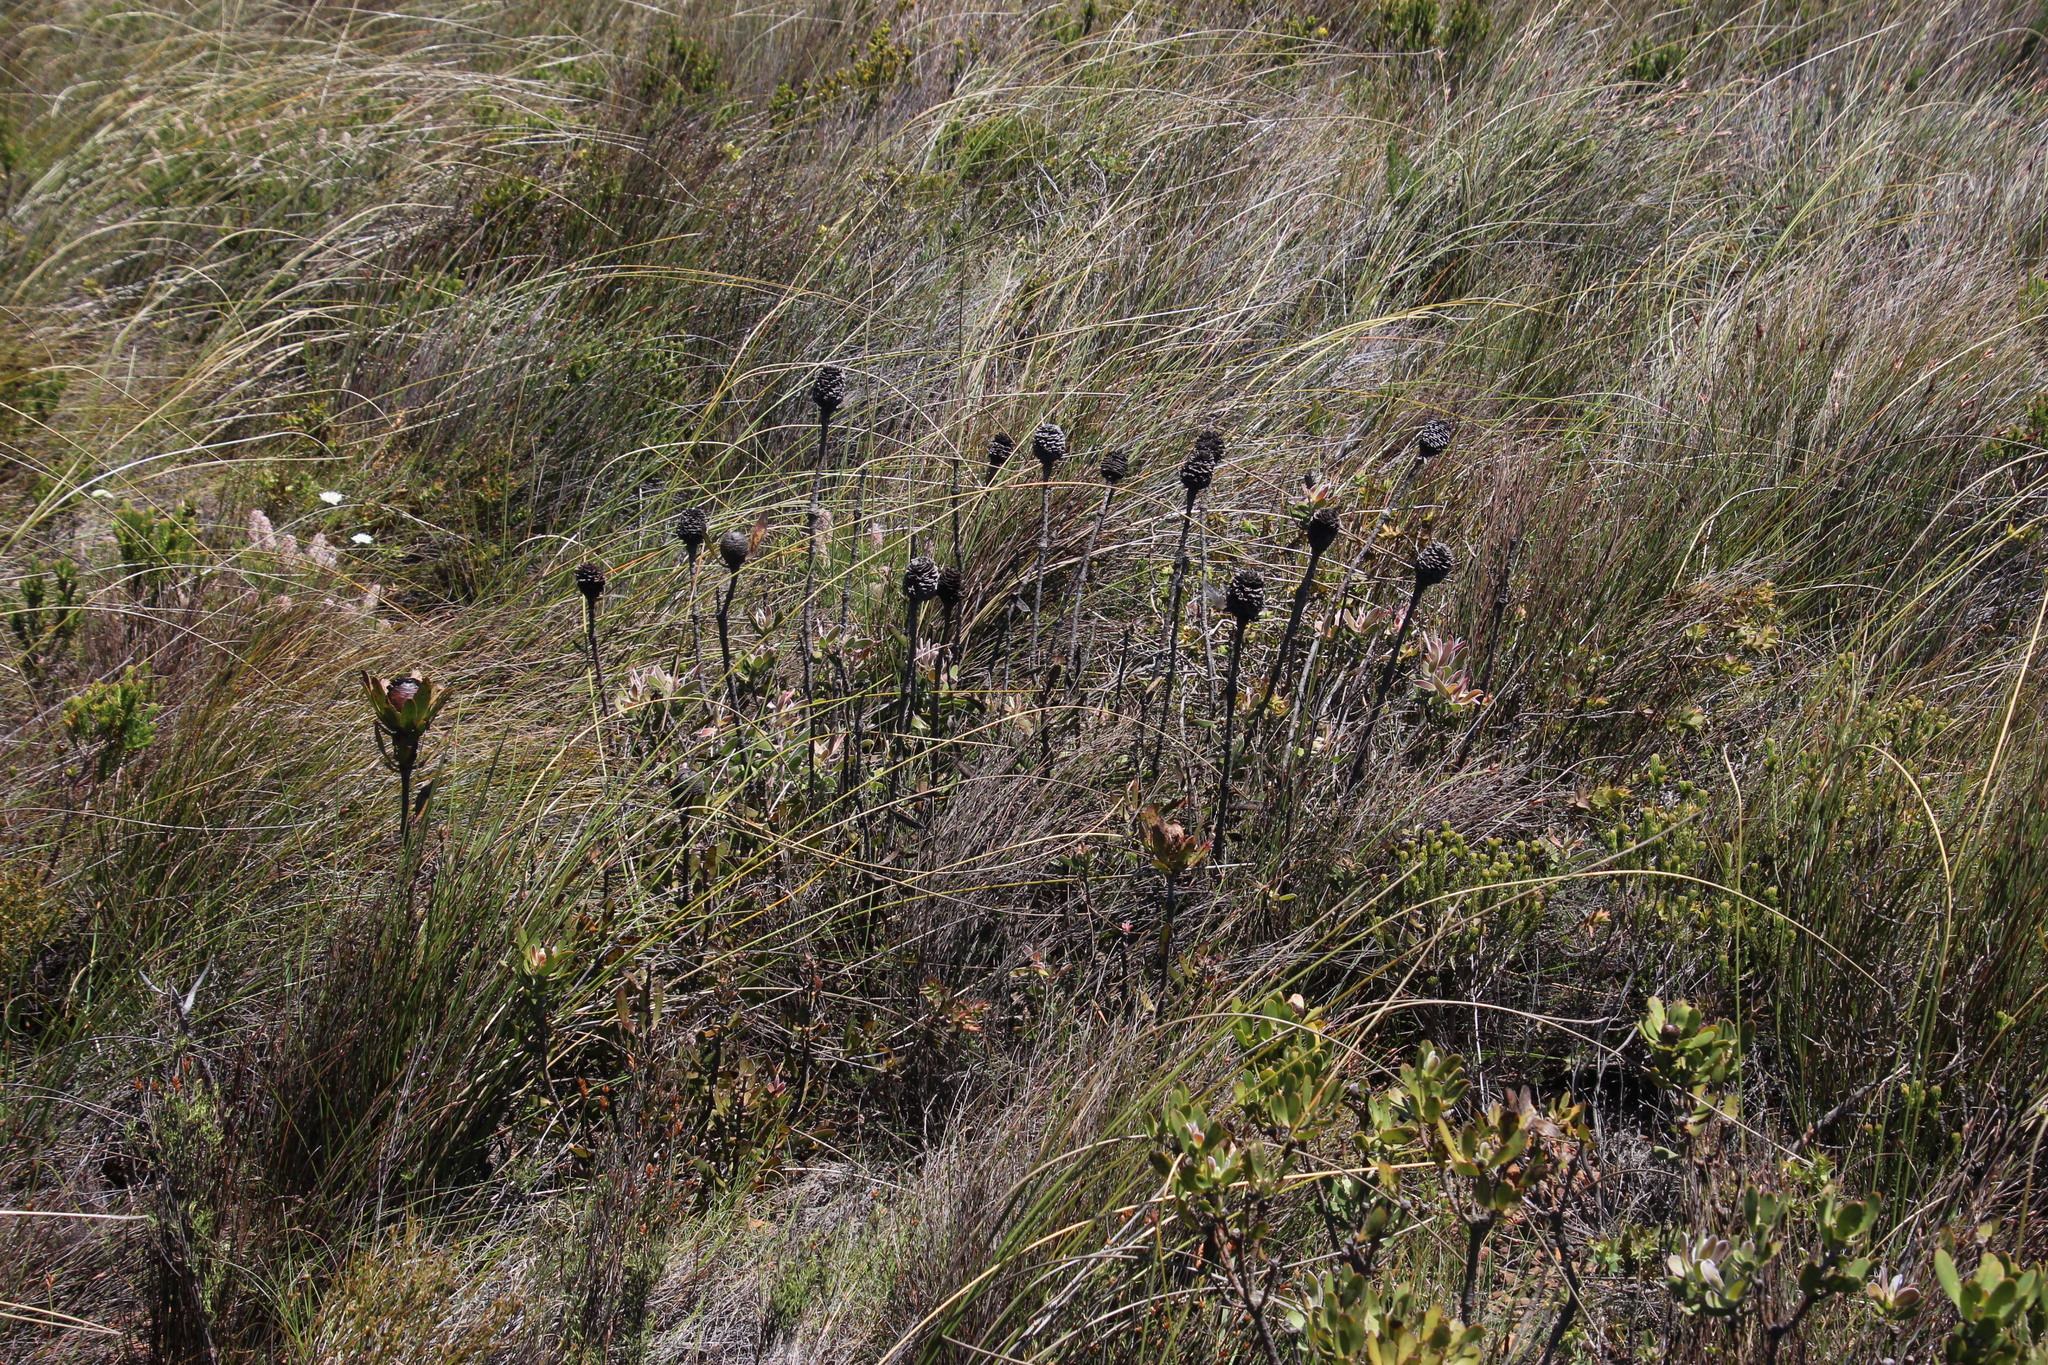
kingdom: Plantae
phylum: Tracheophyta
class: Magnoliopsida
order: Proteales
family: Proteaceae
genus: Leucadendron
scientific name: Leucadendron spissifolium
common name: Spear-leaf conebush
